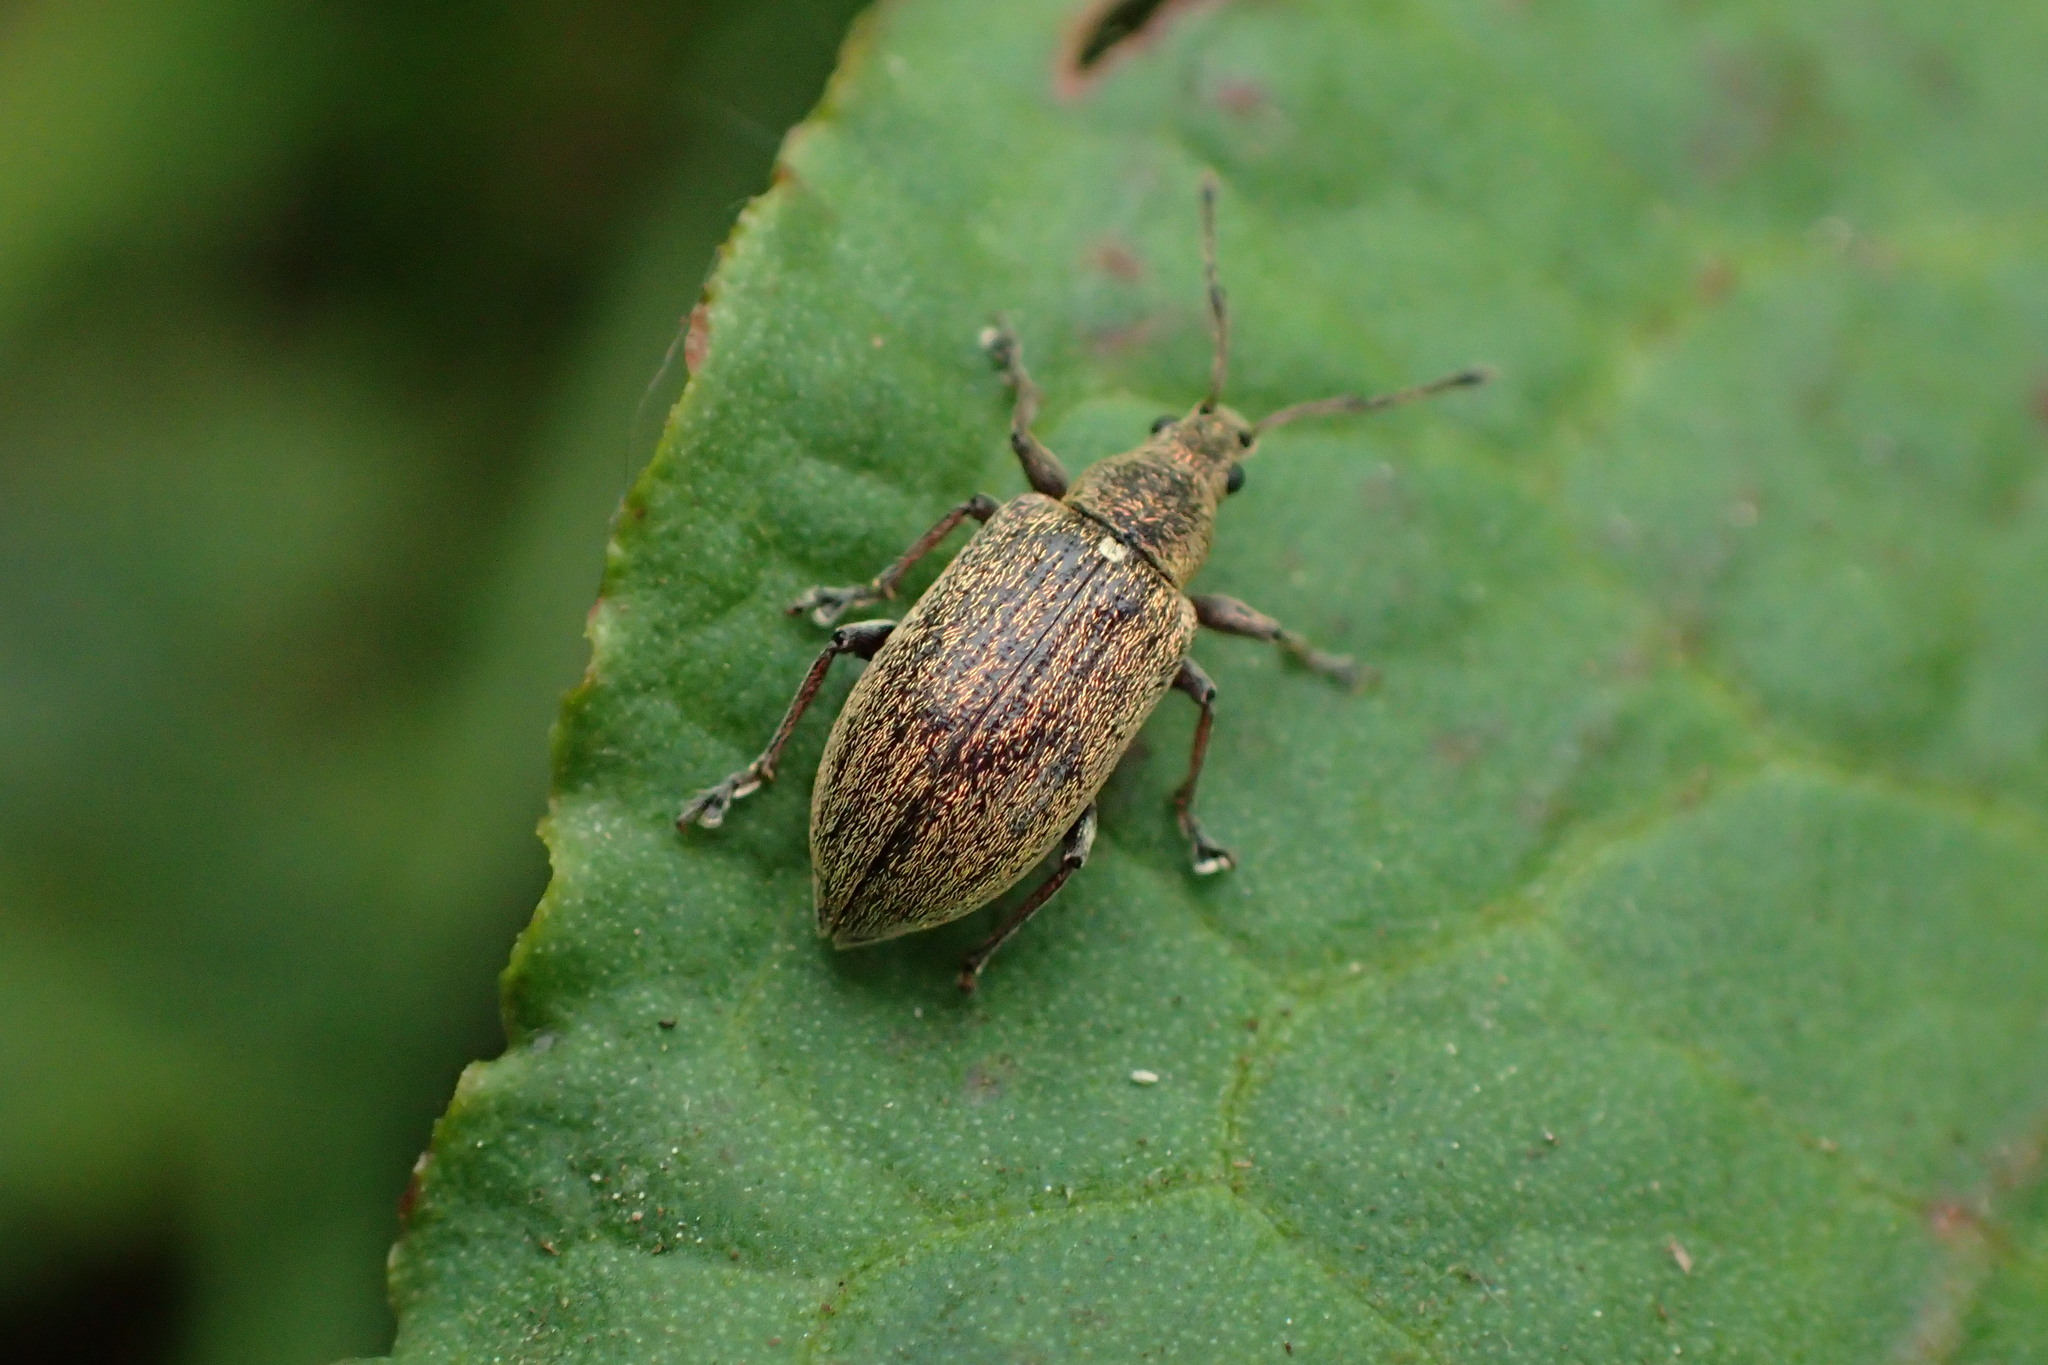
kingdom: Animalia
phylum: Arthropoda
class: Insecta
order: Coleoptera
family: Curculionidae
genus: Phyllobius
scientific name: Phyllobius pyri
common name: Common leaf weevil
